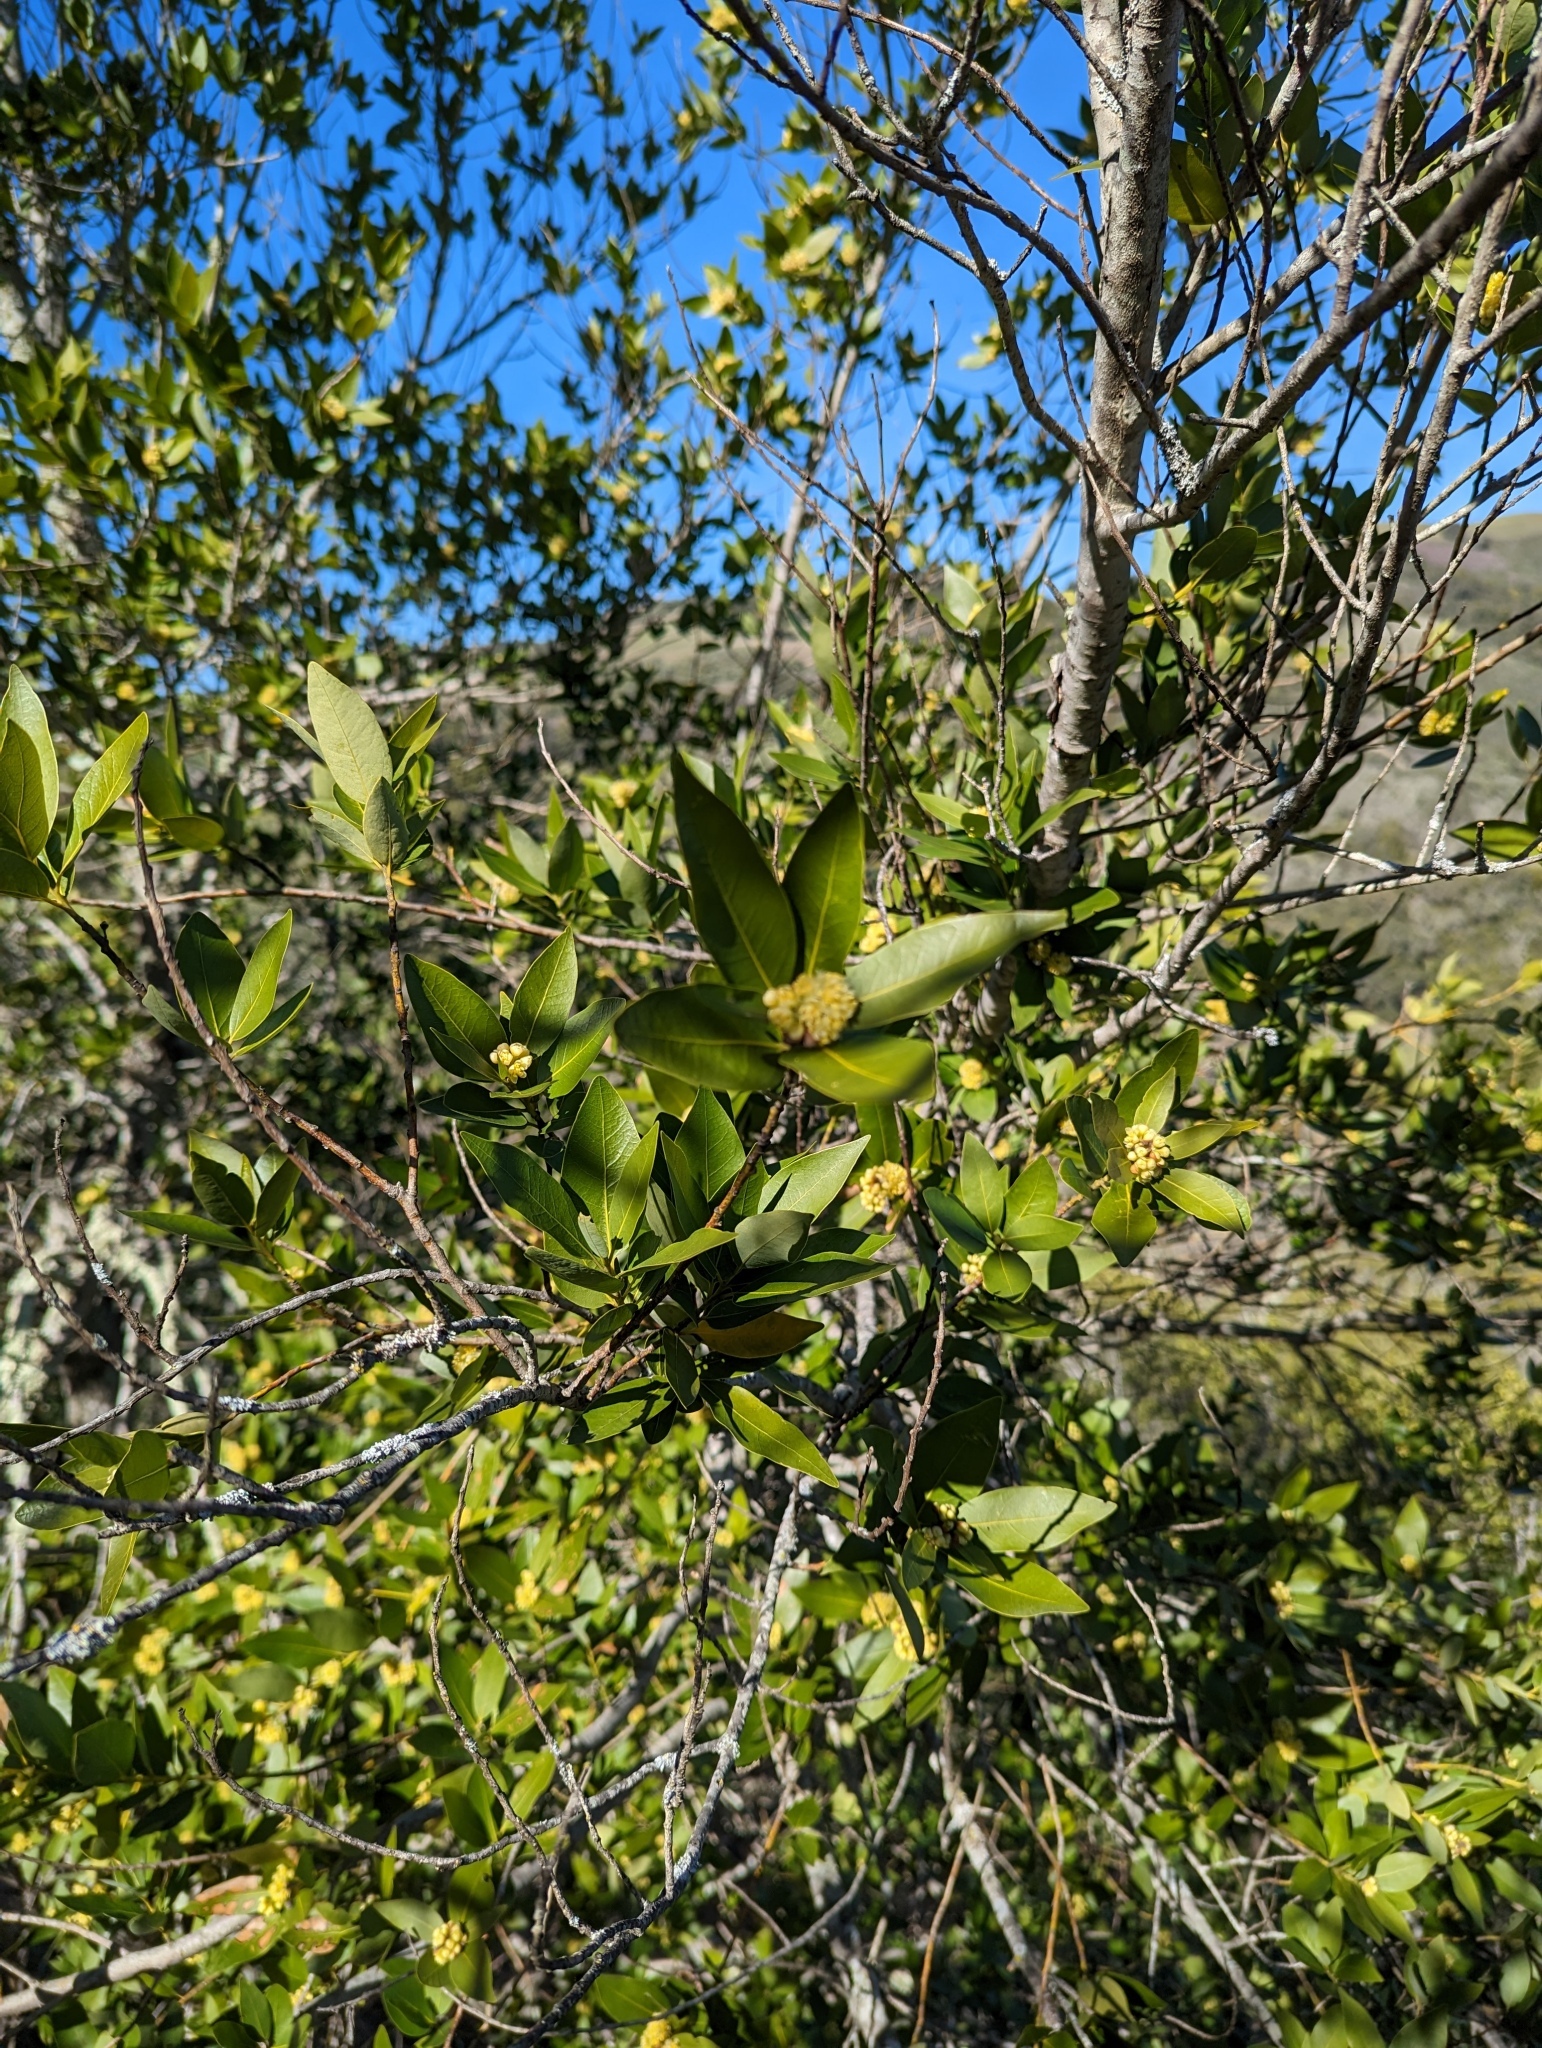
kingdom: Plantae
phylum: Tracheophyta
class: Magnoliopsida
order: Laurales
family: Lauraceae
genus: Umbellularia
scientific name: Umbellularia californica
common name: California bay
